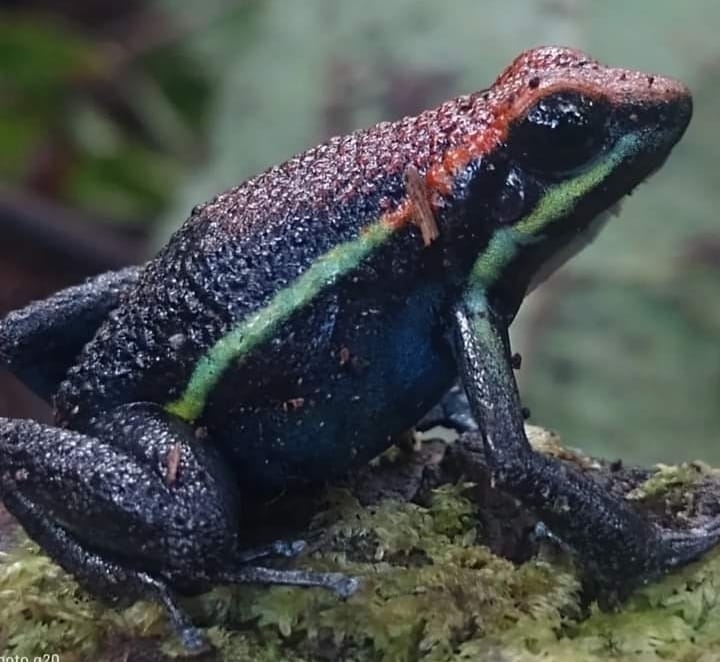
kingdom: Animalia
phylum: Chordata
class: Amphibia
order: Anura
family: Dendrobatidae
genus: Ameerega
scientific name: Ameerega macero
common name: Manu poison frog
